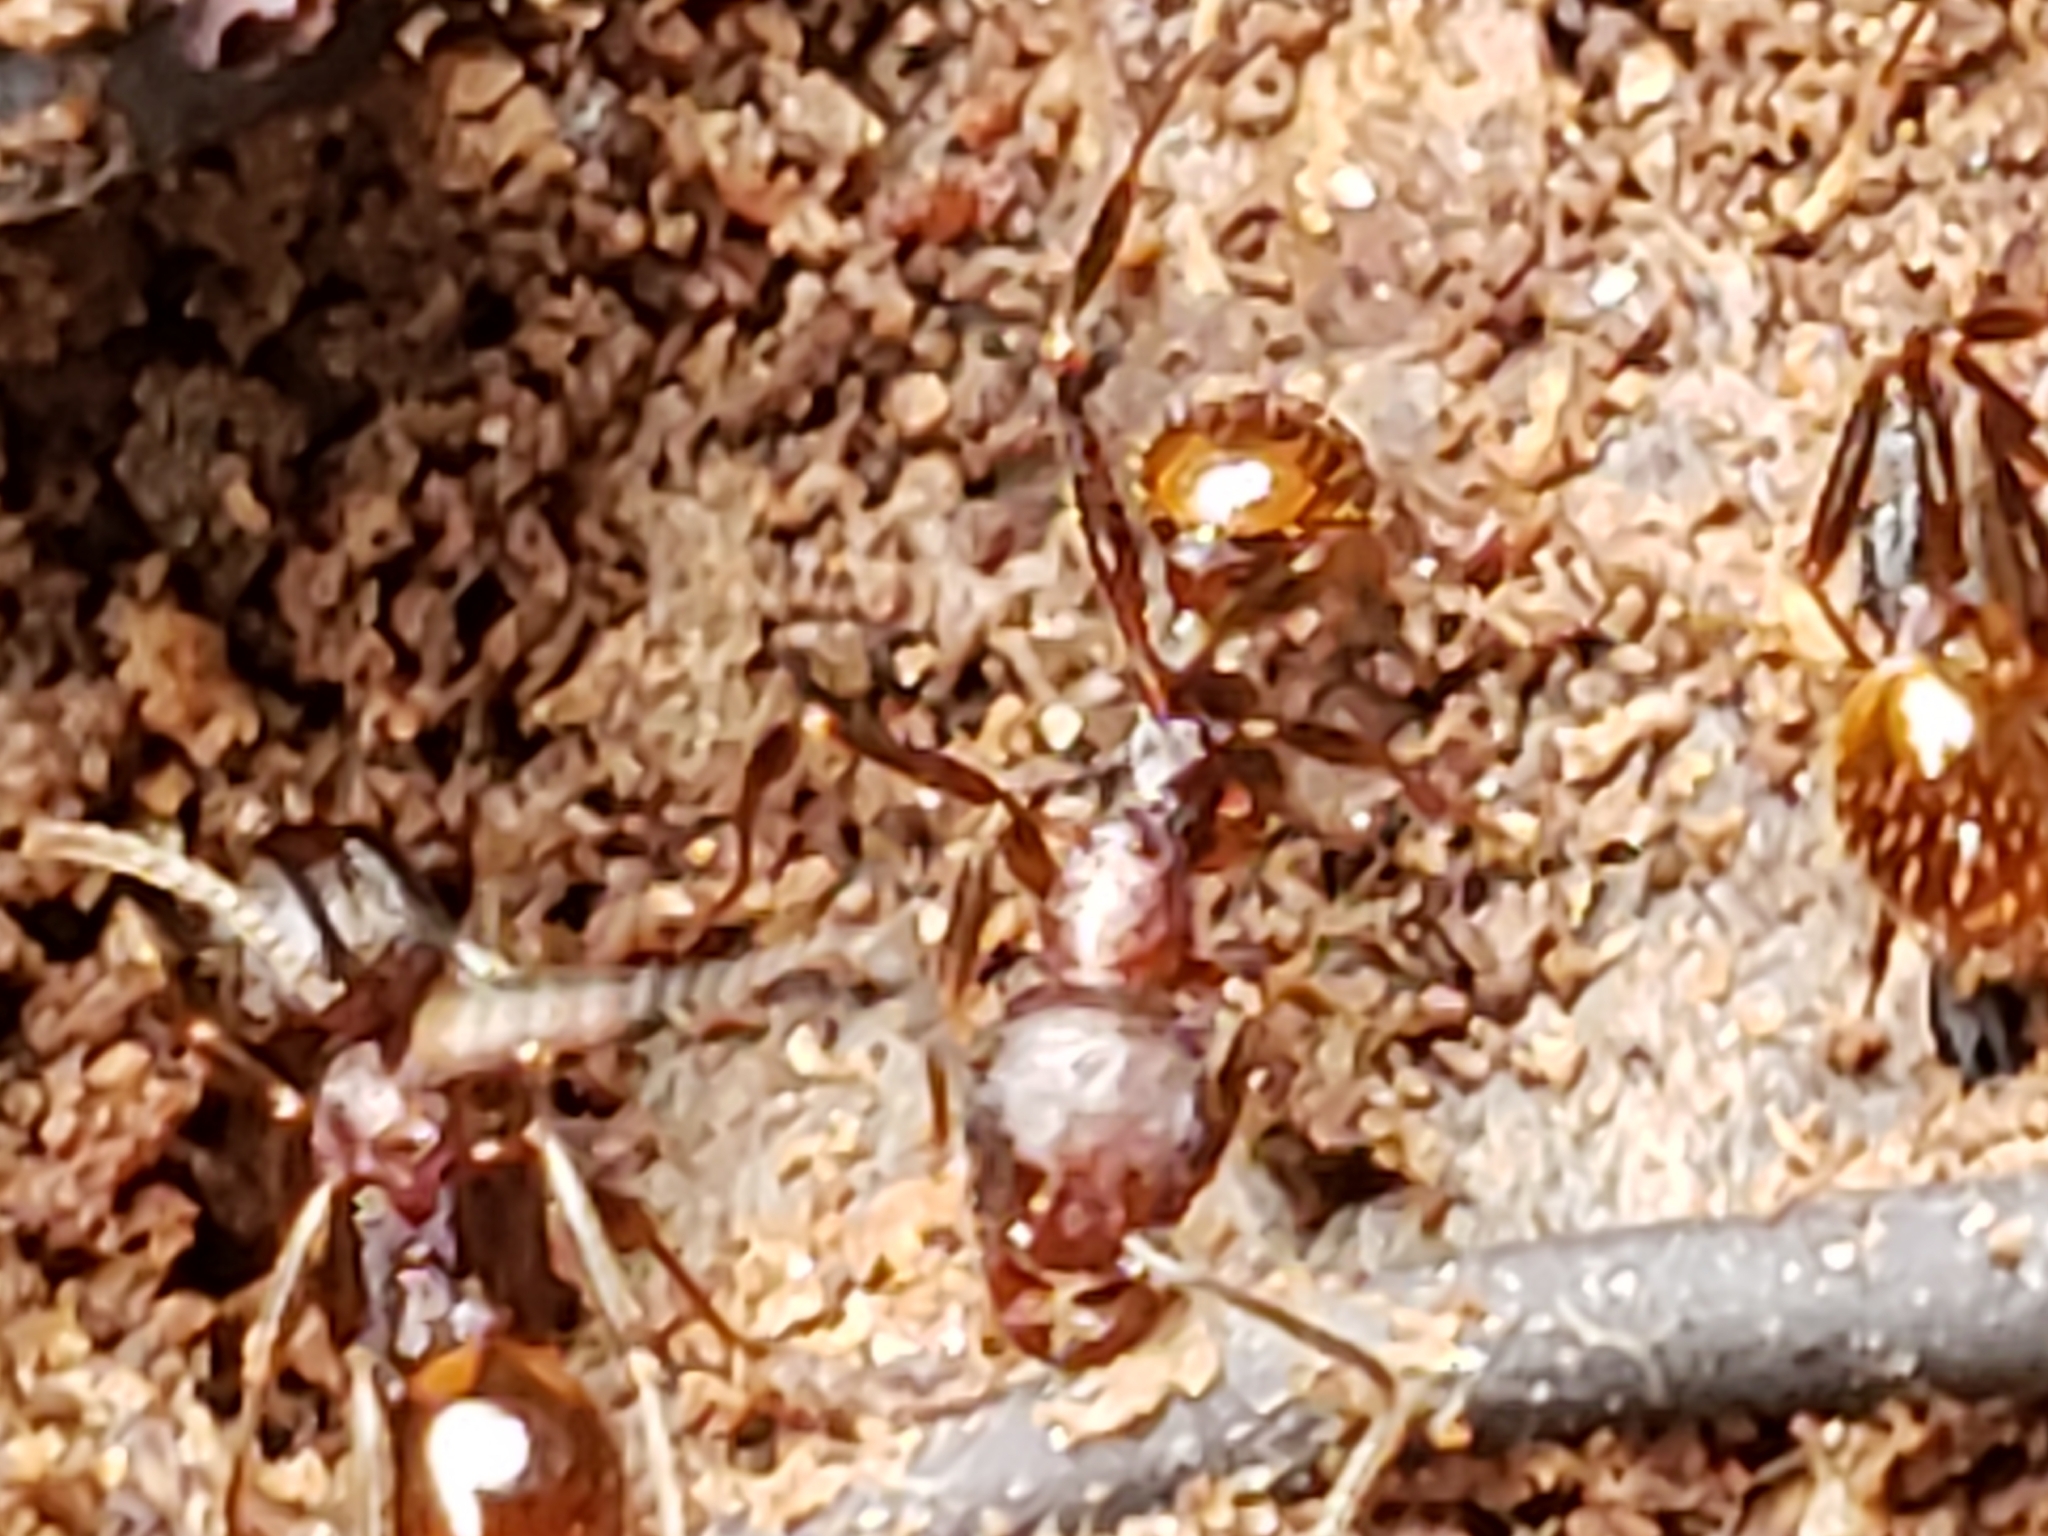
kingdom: Animalia
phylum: Arthropoda
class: Insecta
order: Hymenoptera
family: Formicidae
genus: Aphaenogaster
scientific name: Aphaenogaster fulva
